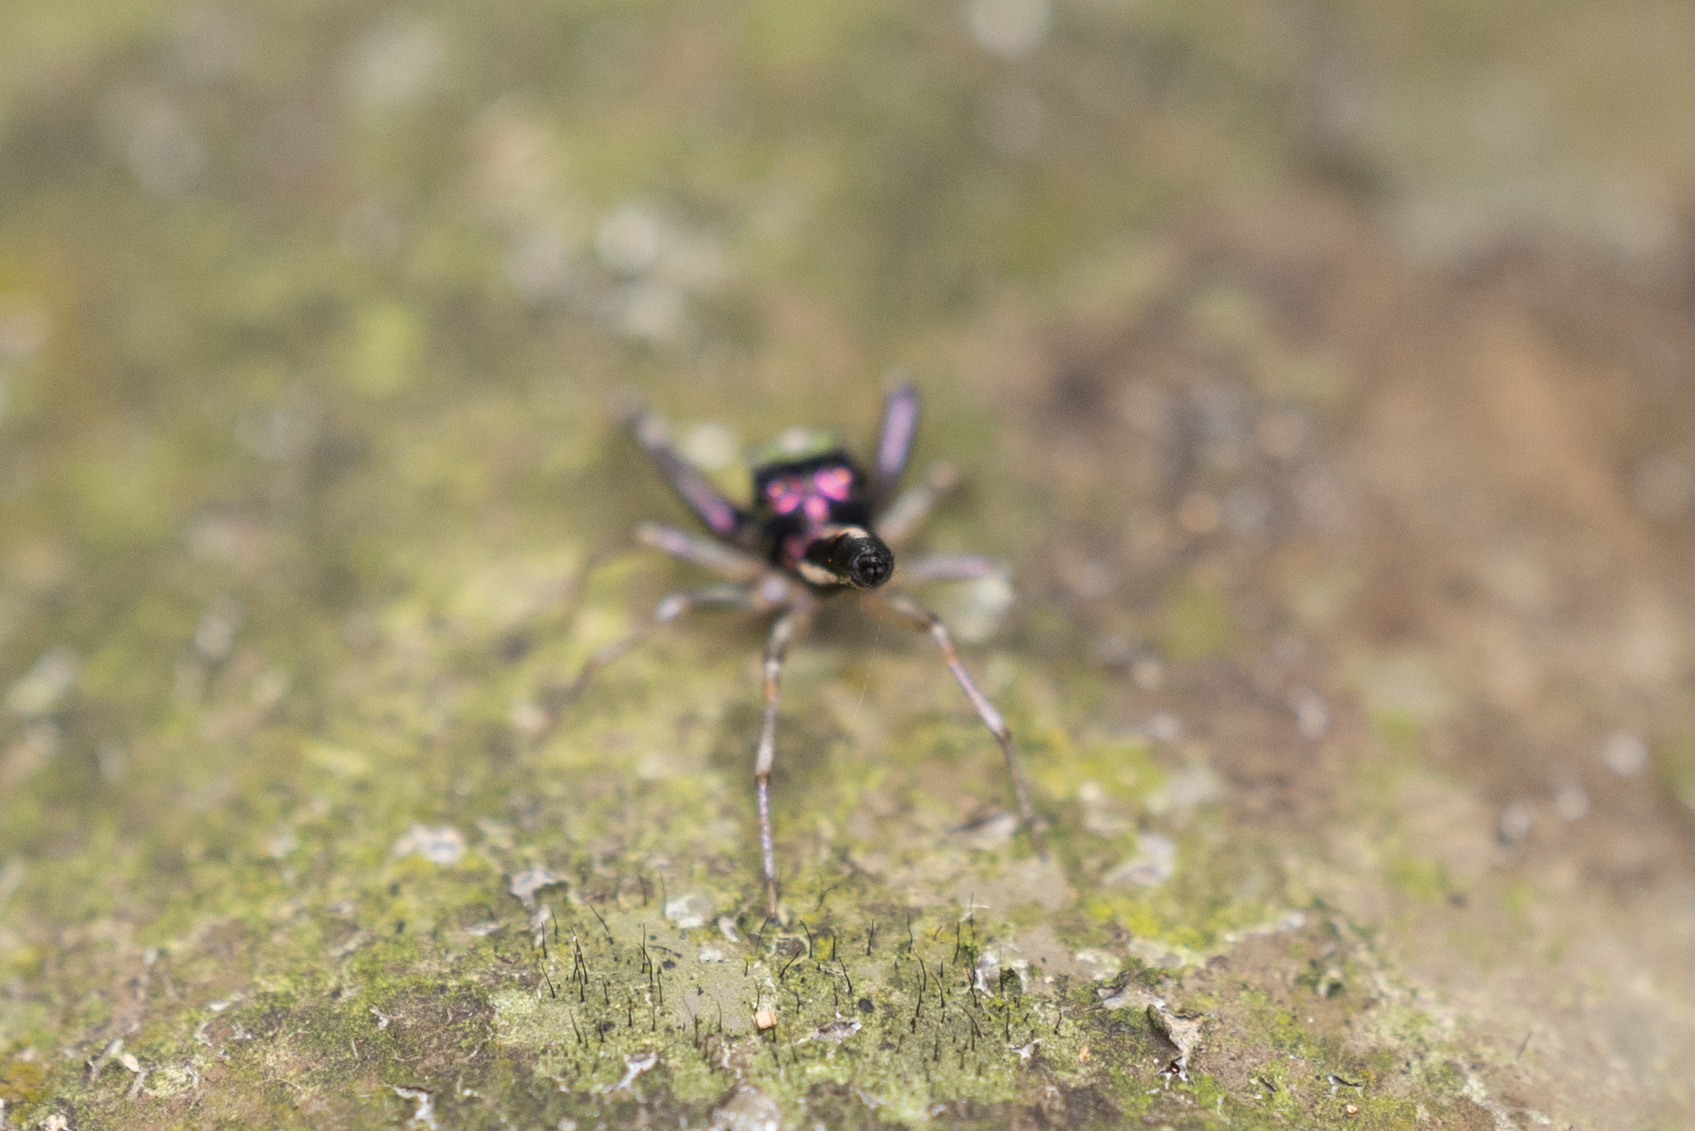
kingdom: Animalia
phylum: Arthropoda
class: Arachnida
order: Araneae
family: Salticidae
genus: Chrysilla
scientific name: Chrysilla acerosa
